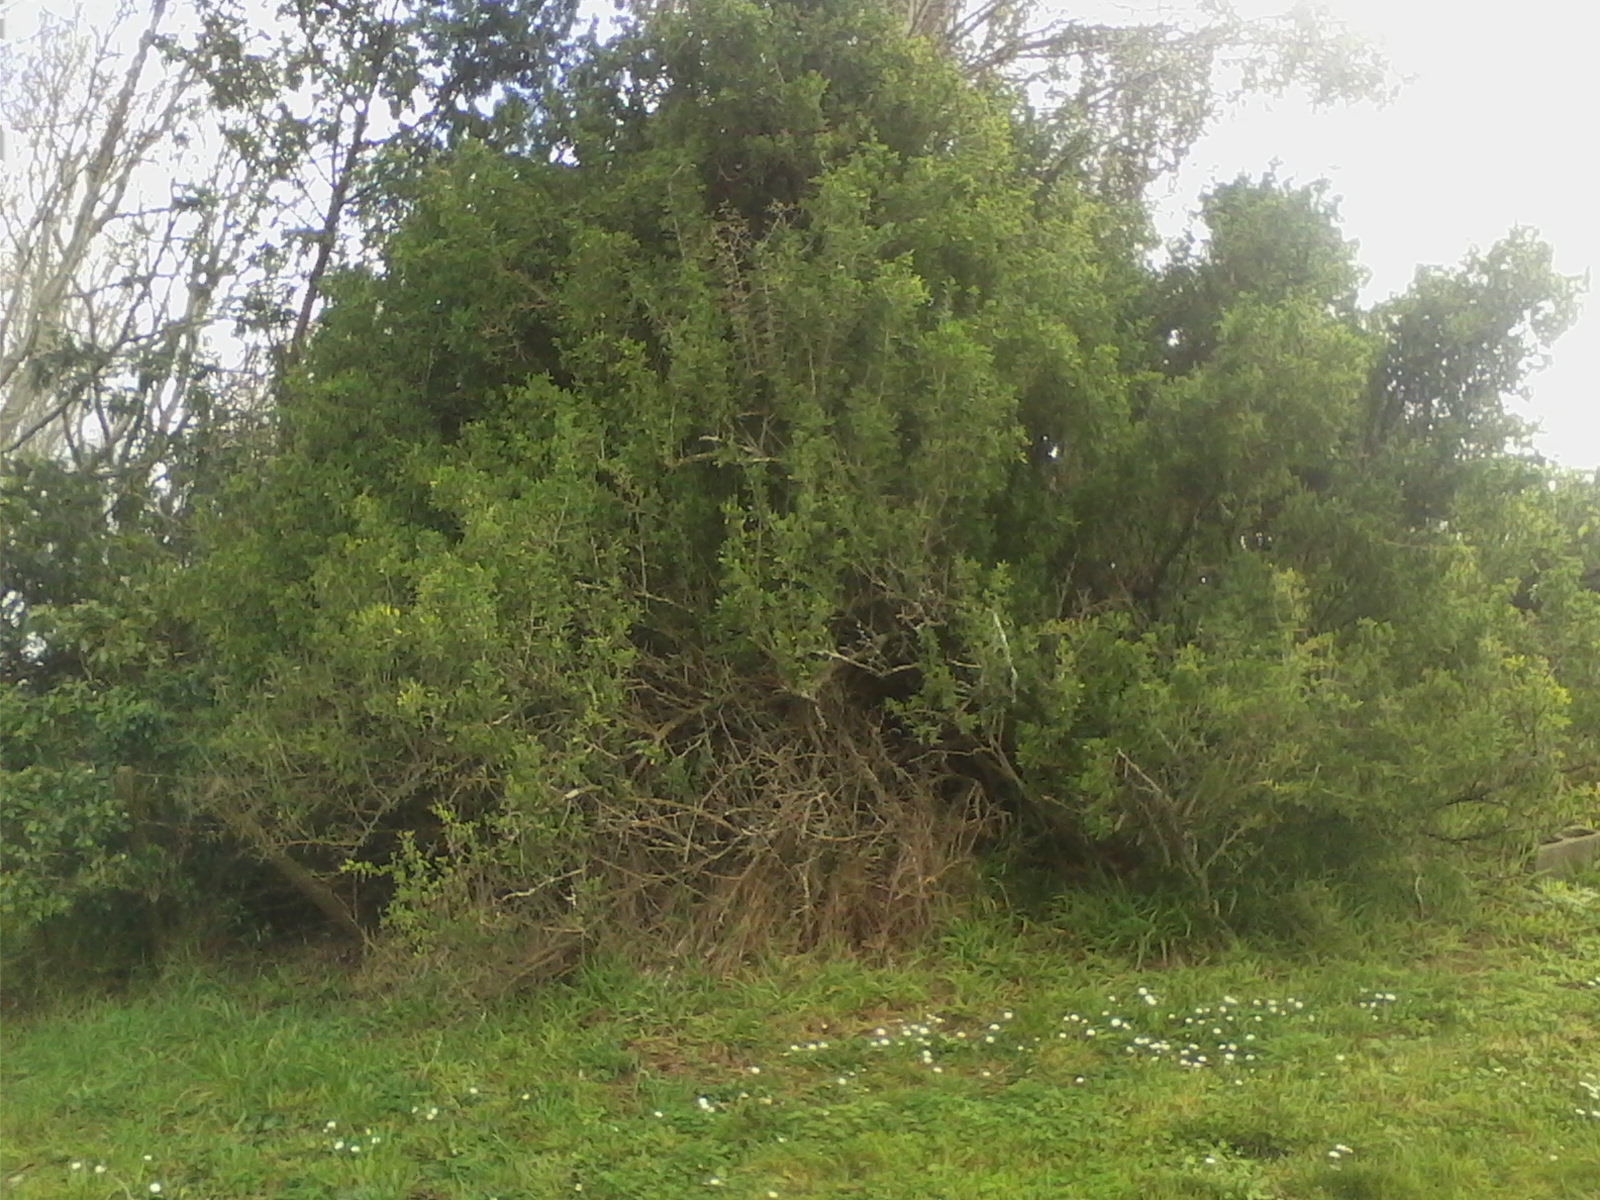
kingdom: Plantae
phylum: Tracheophyta
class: Magnoliopsida
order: Solanales
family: Solanaceae
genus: Lycium
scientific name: Lycium ferocissimum
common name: African boxthorn
